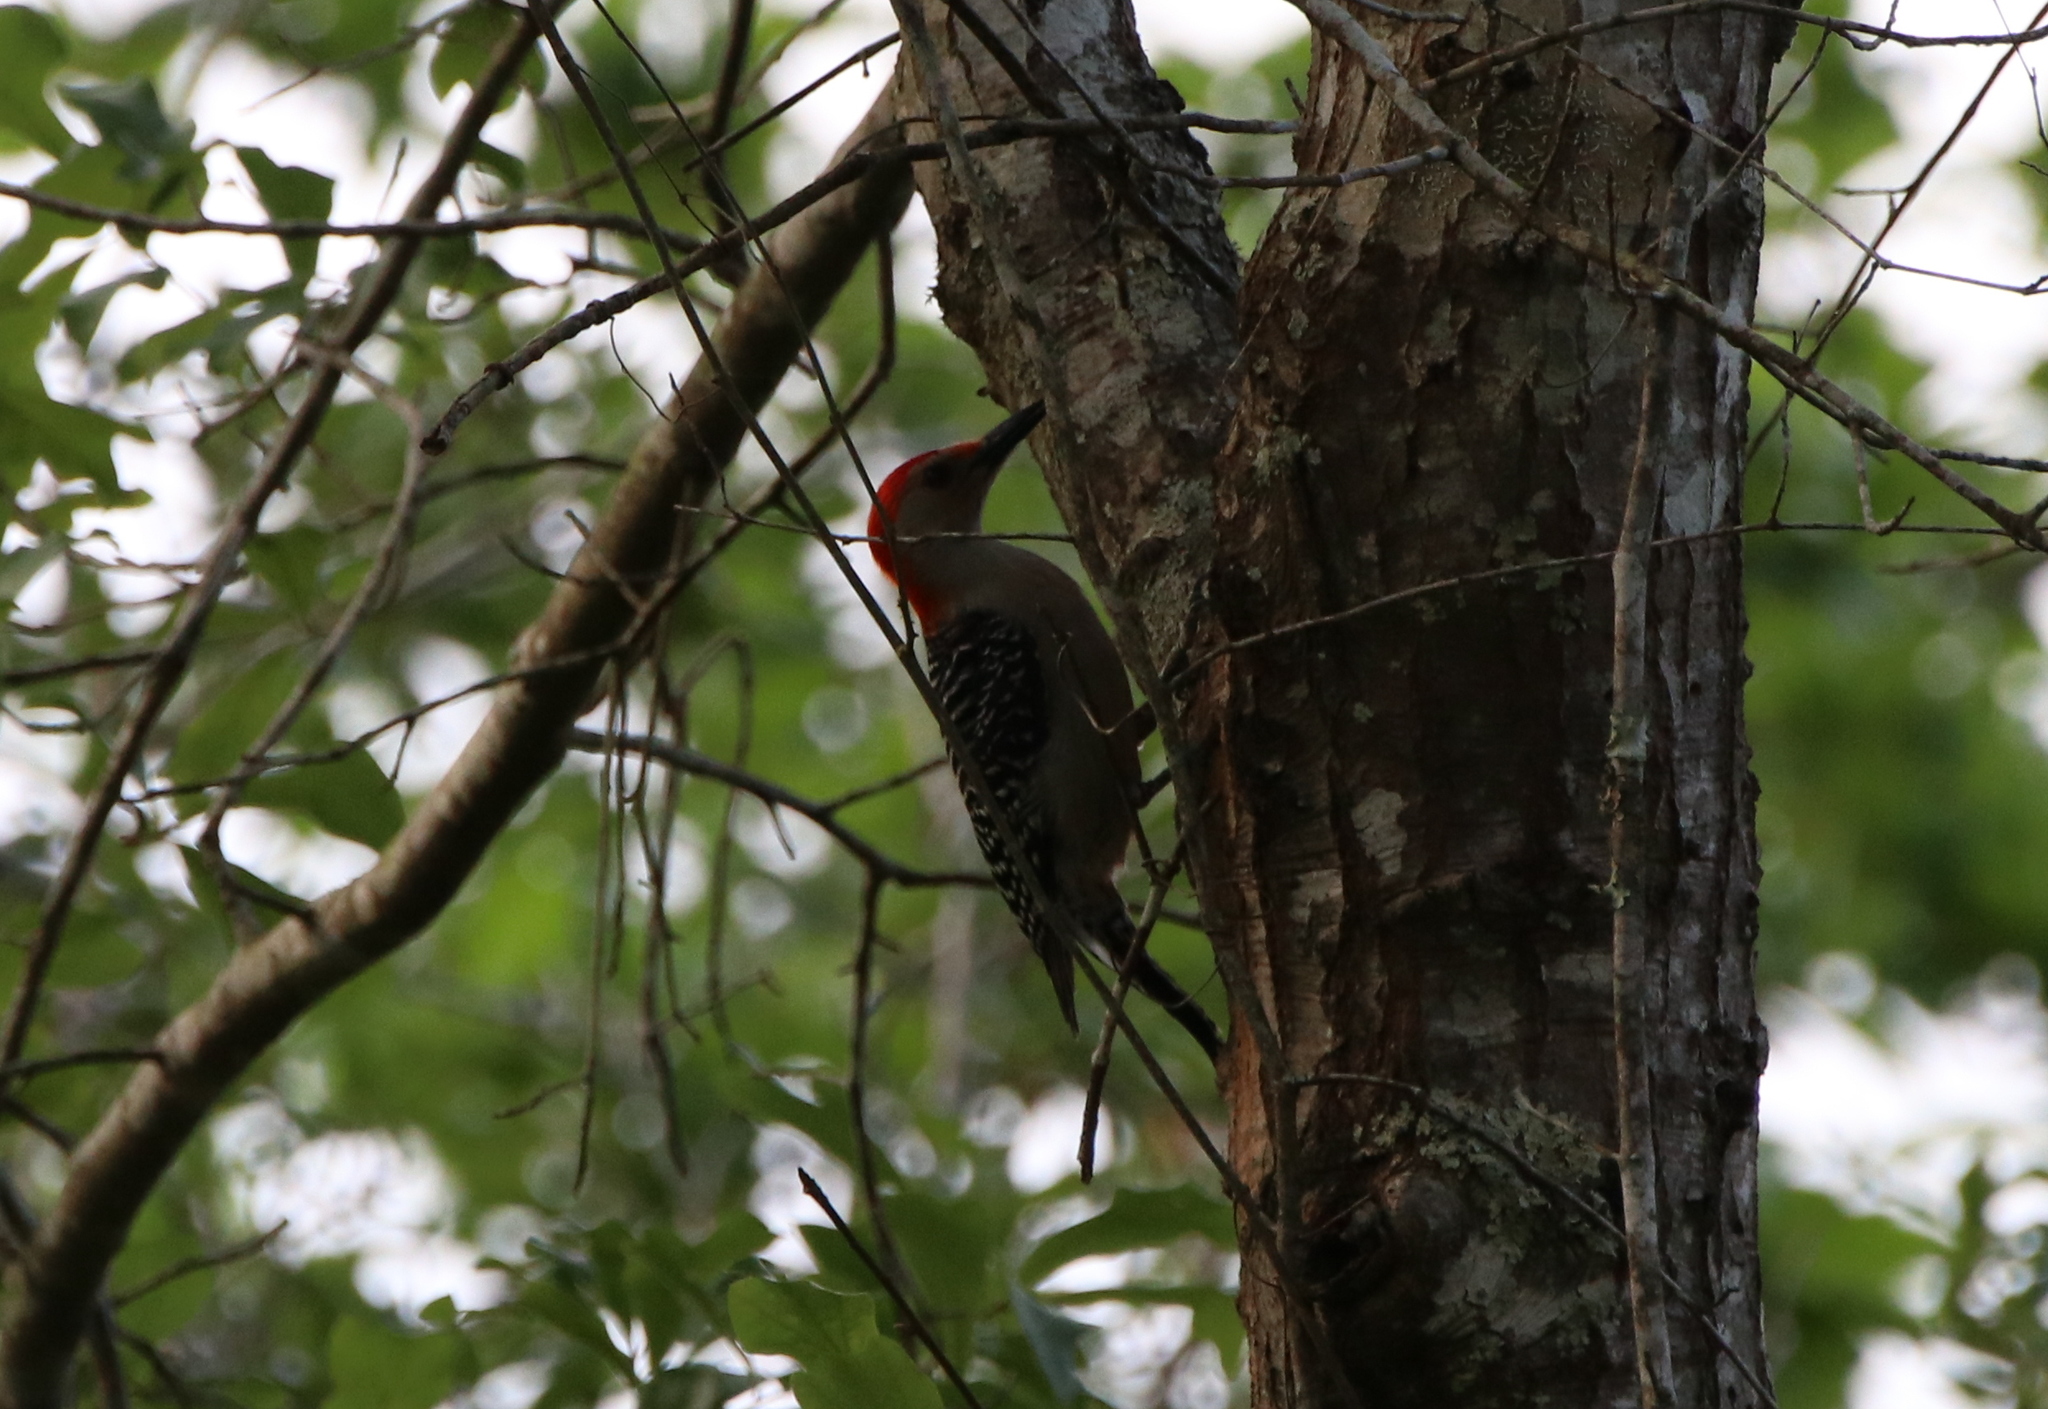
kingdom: Animalia
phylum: Chordata
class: Aves
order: Piciformes
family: Picidae
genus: Melanerpes
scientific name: Melanerpes carolinus
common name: Red-bellied woodpecker
